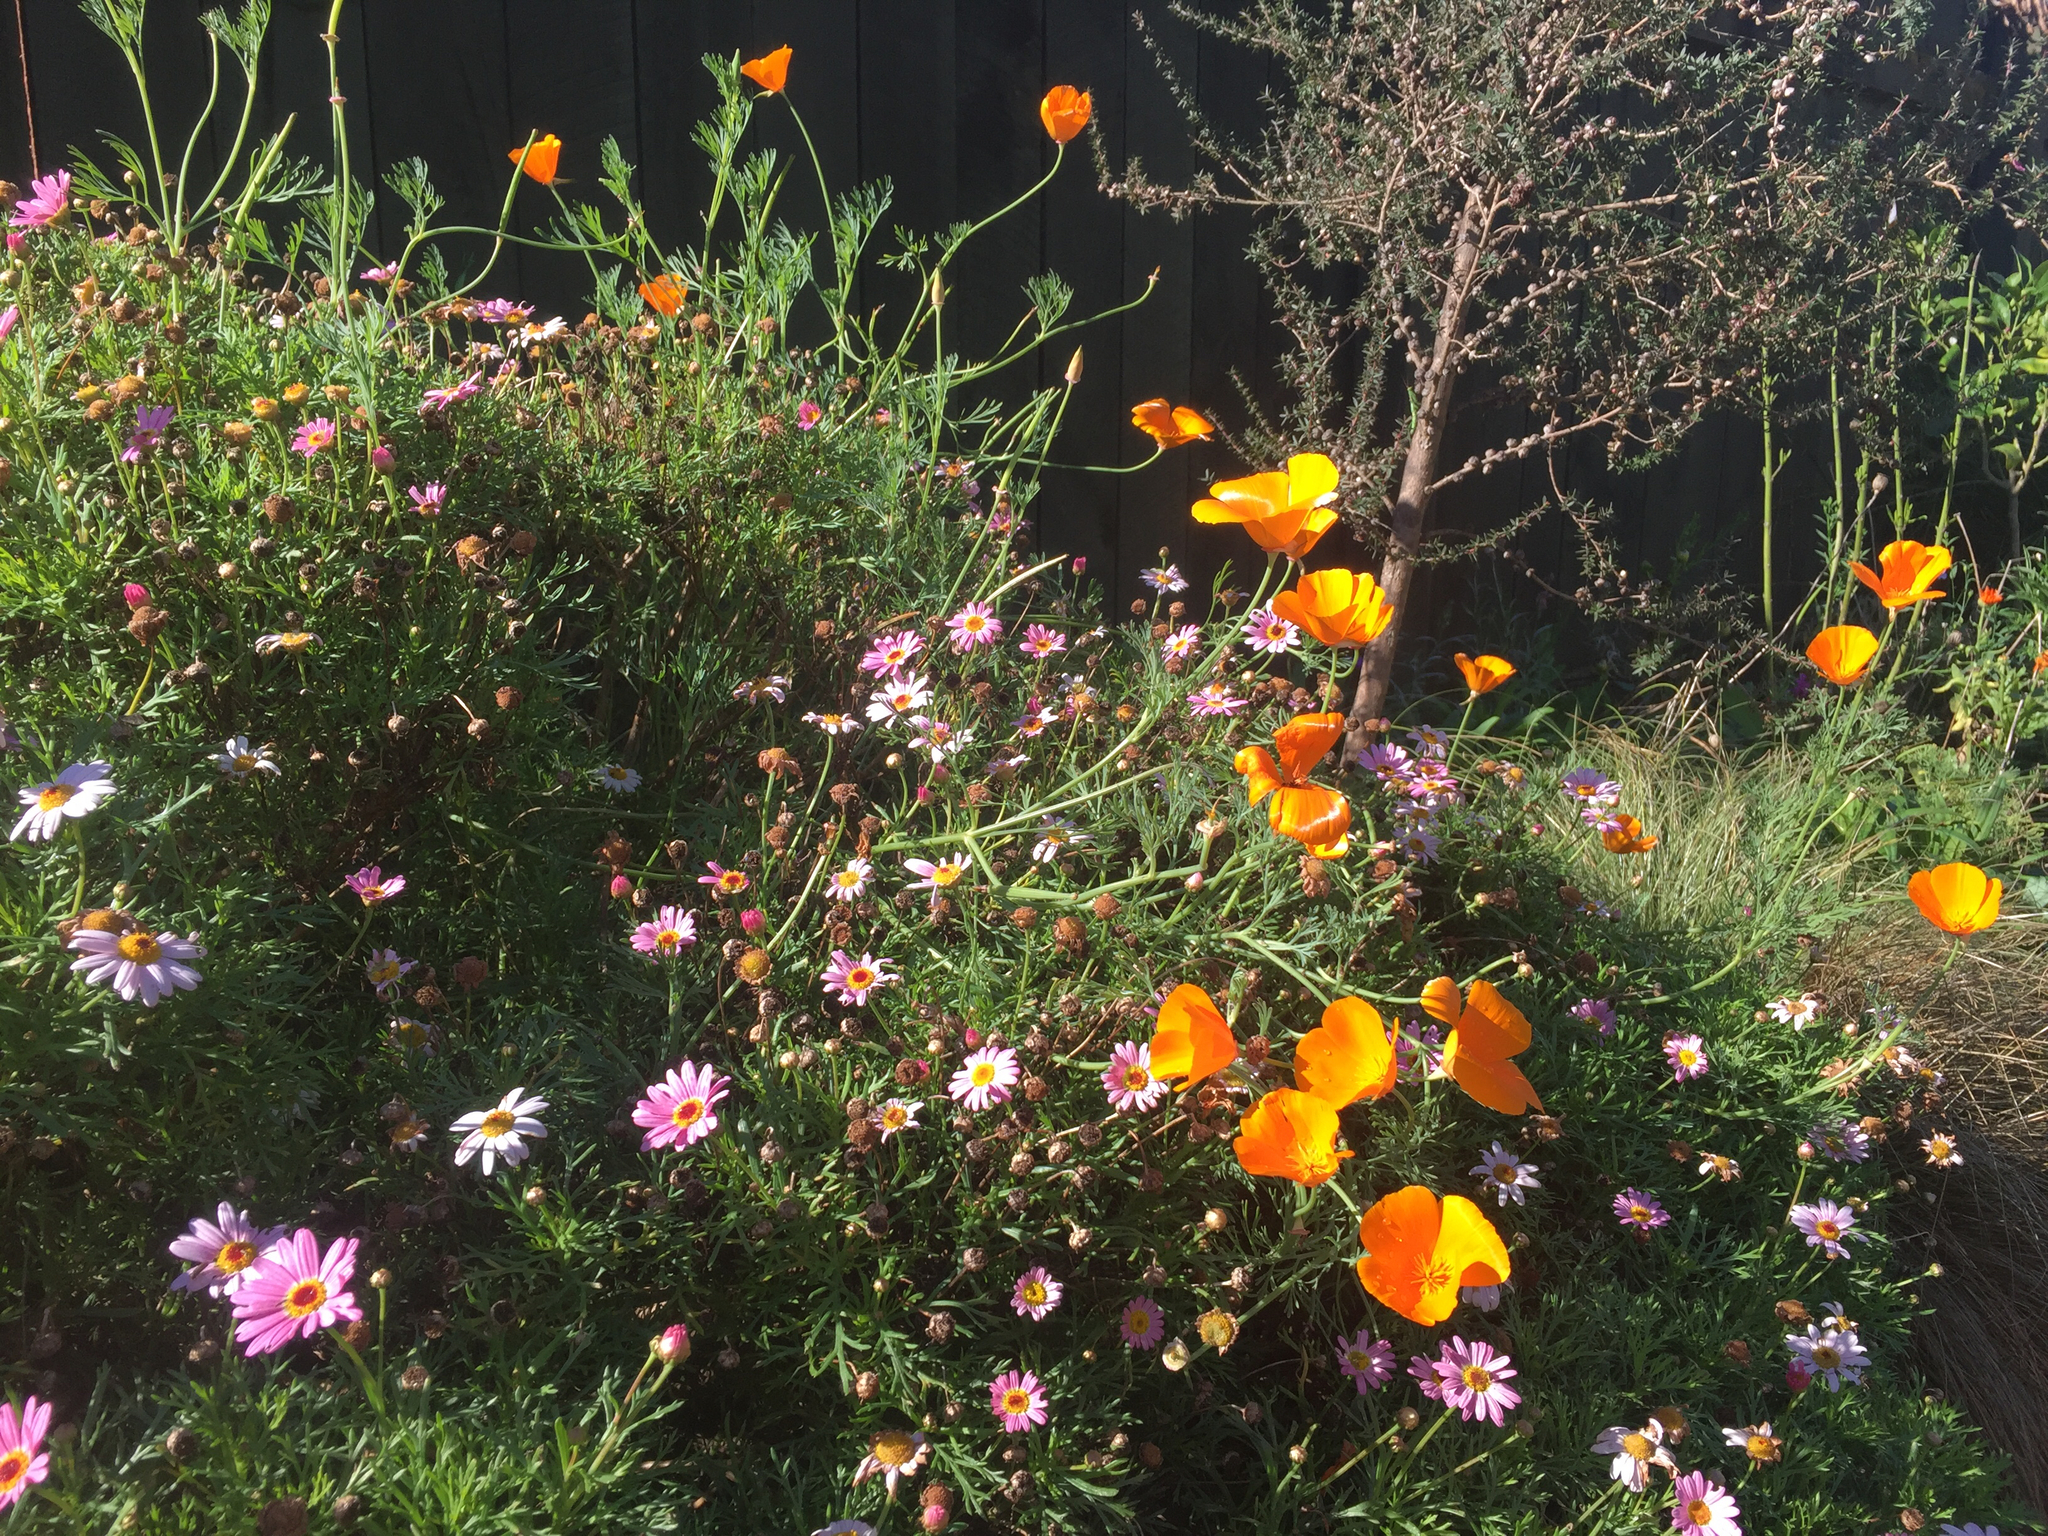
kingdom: Plantae
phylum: Tracheophyta
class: Magnoliopsida
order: Ranunculales
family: Papaveraceae
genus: Eschscholzia
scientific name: Eschscholzia californica
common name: California poppy
